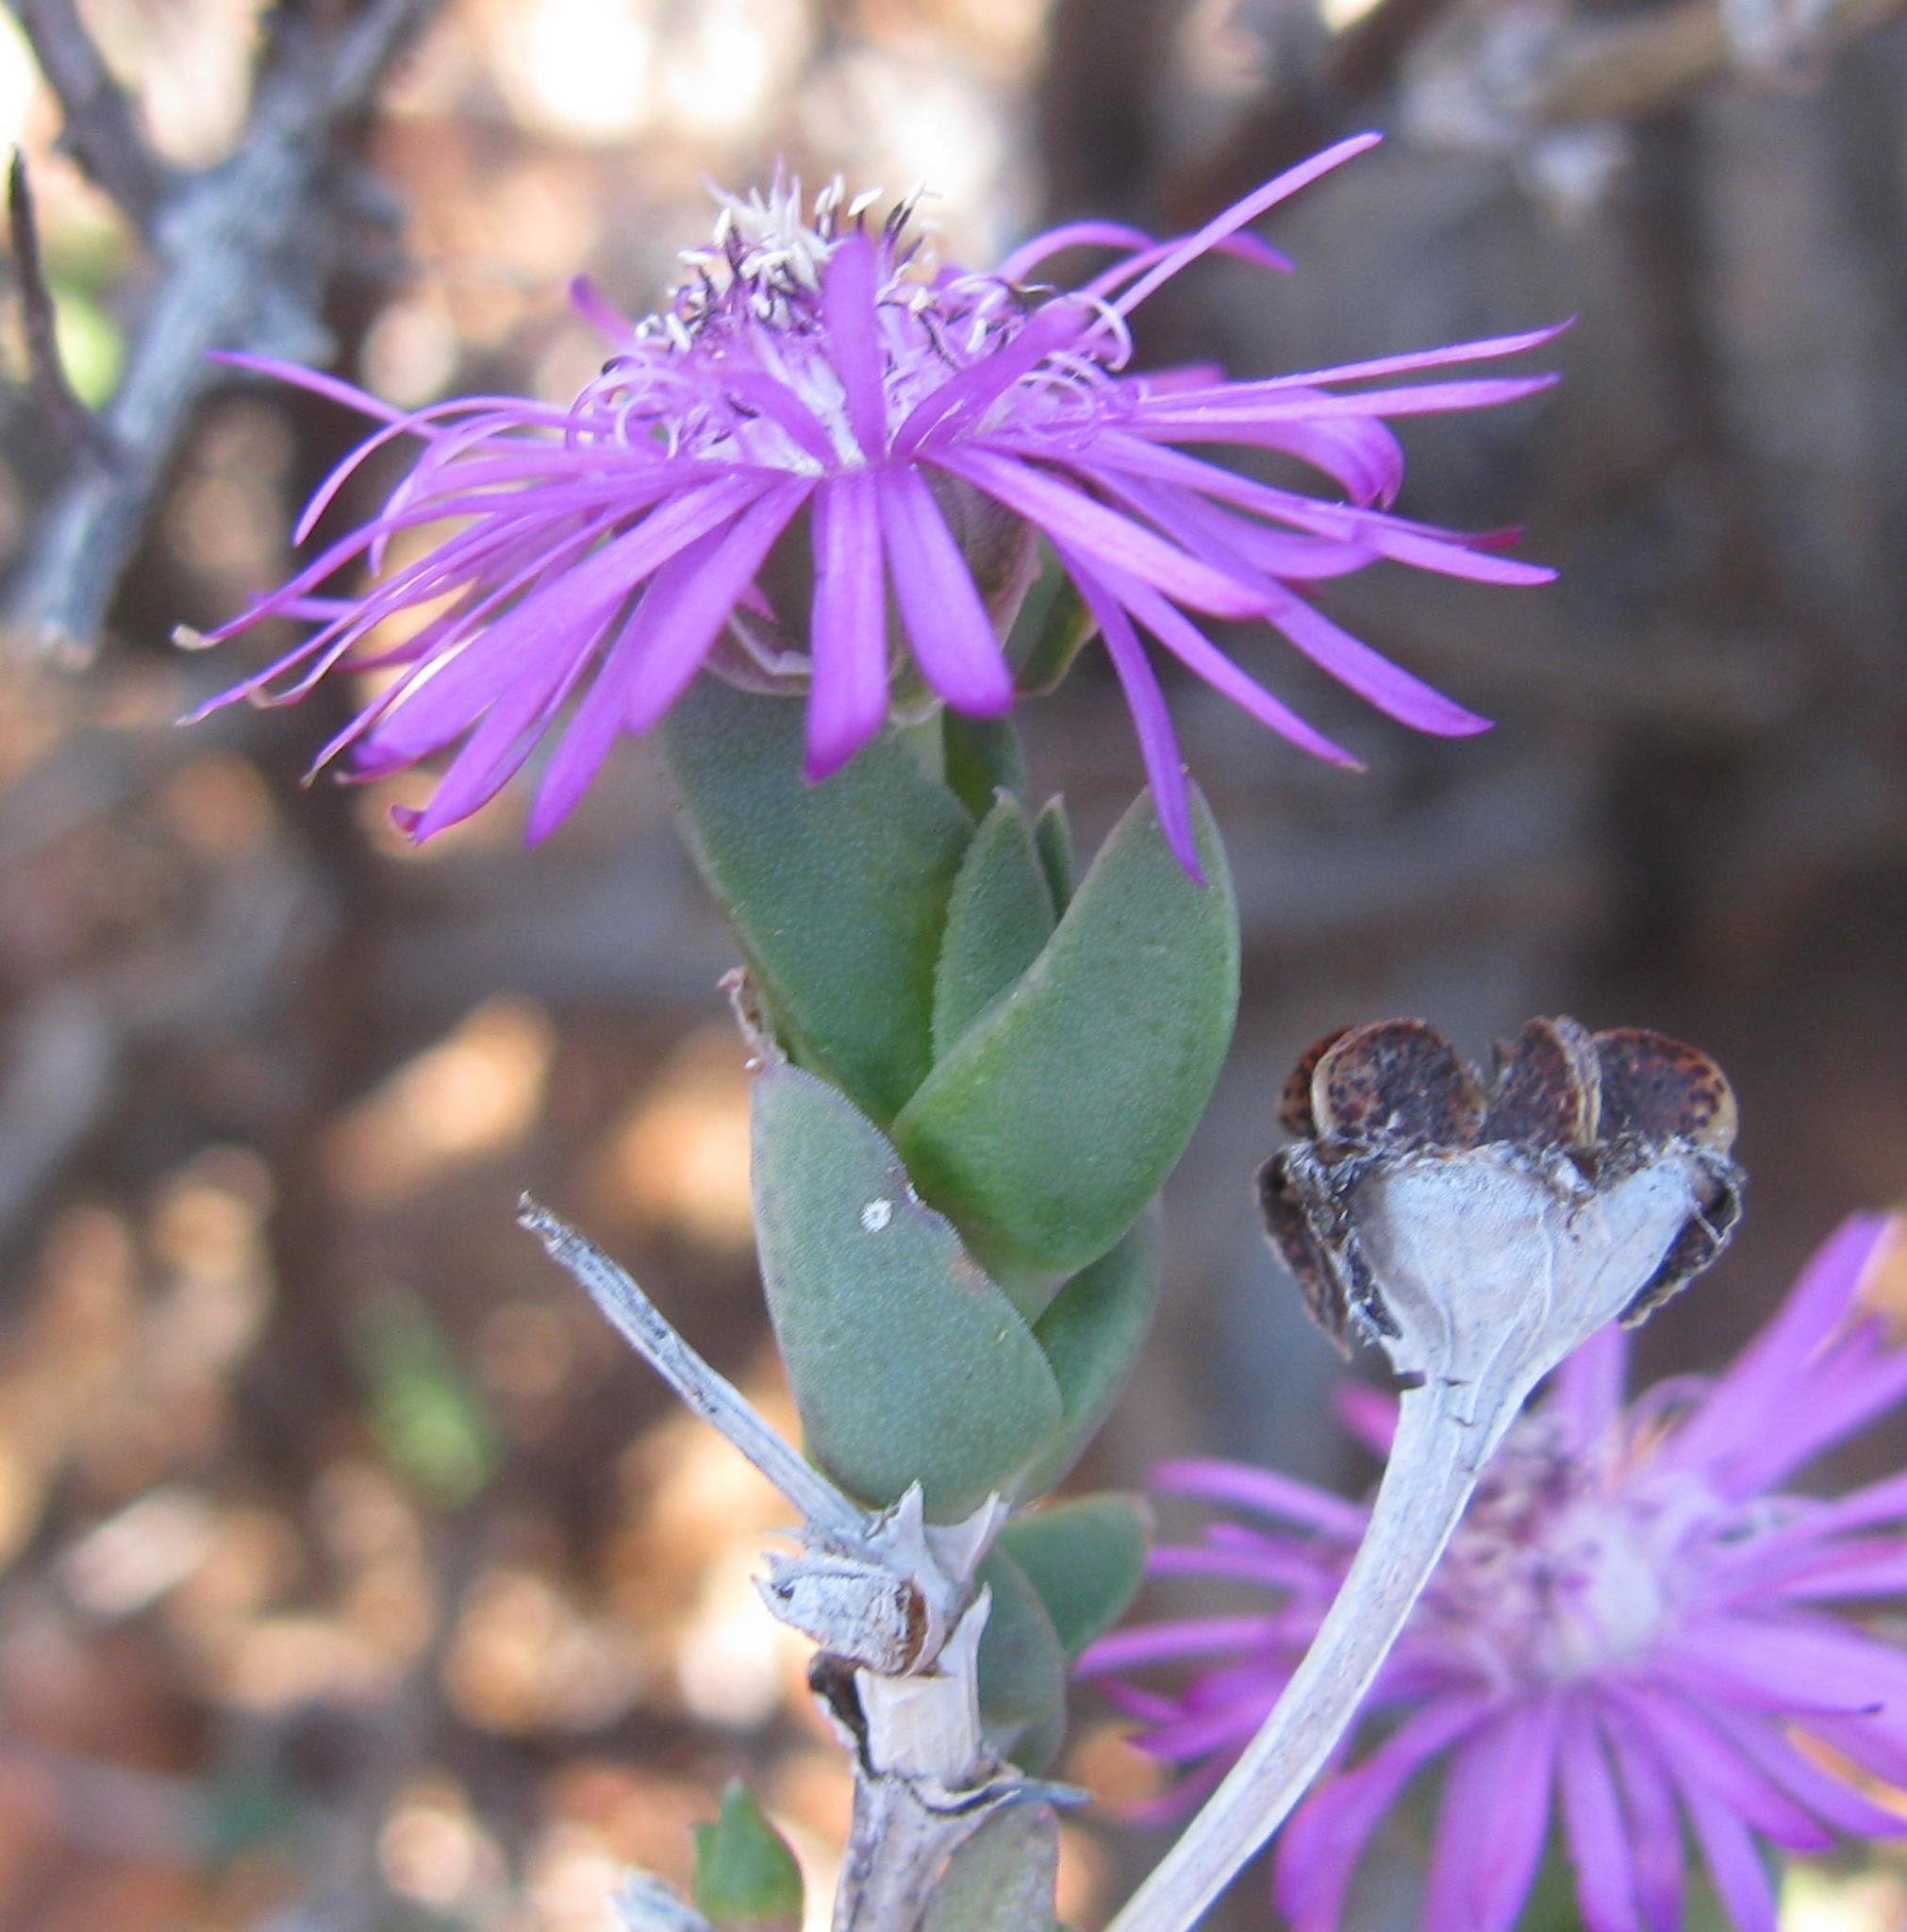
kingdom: Plantae
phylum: Tracheophyta
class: Magnoliopsida
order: Caryophyllales
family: Aizoaceae
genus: Antimima
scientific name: Antimima gracillima
